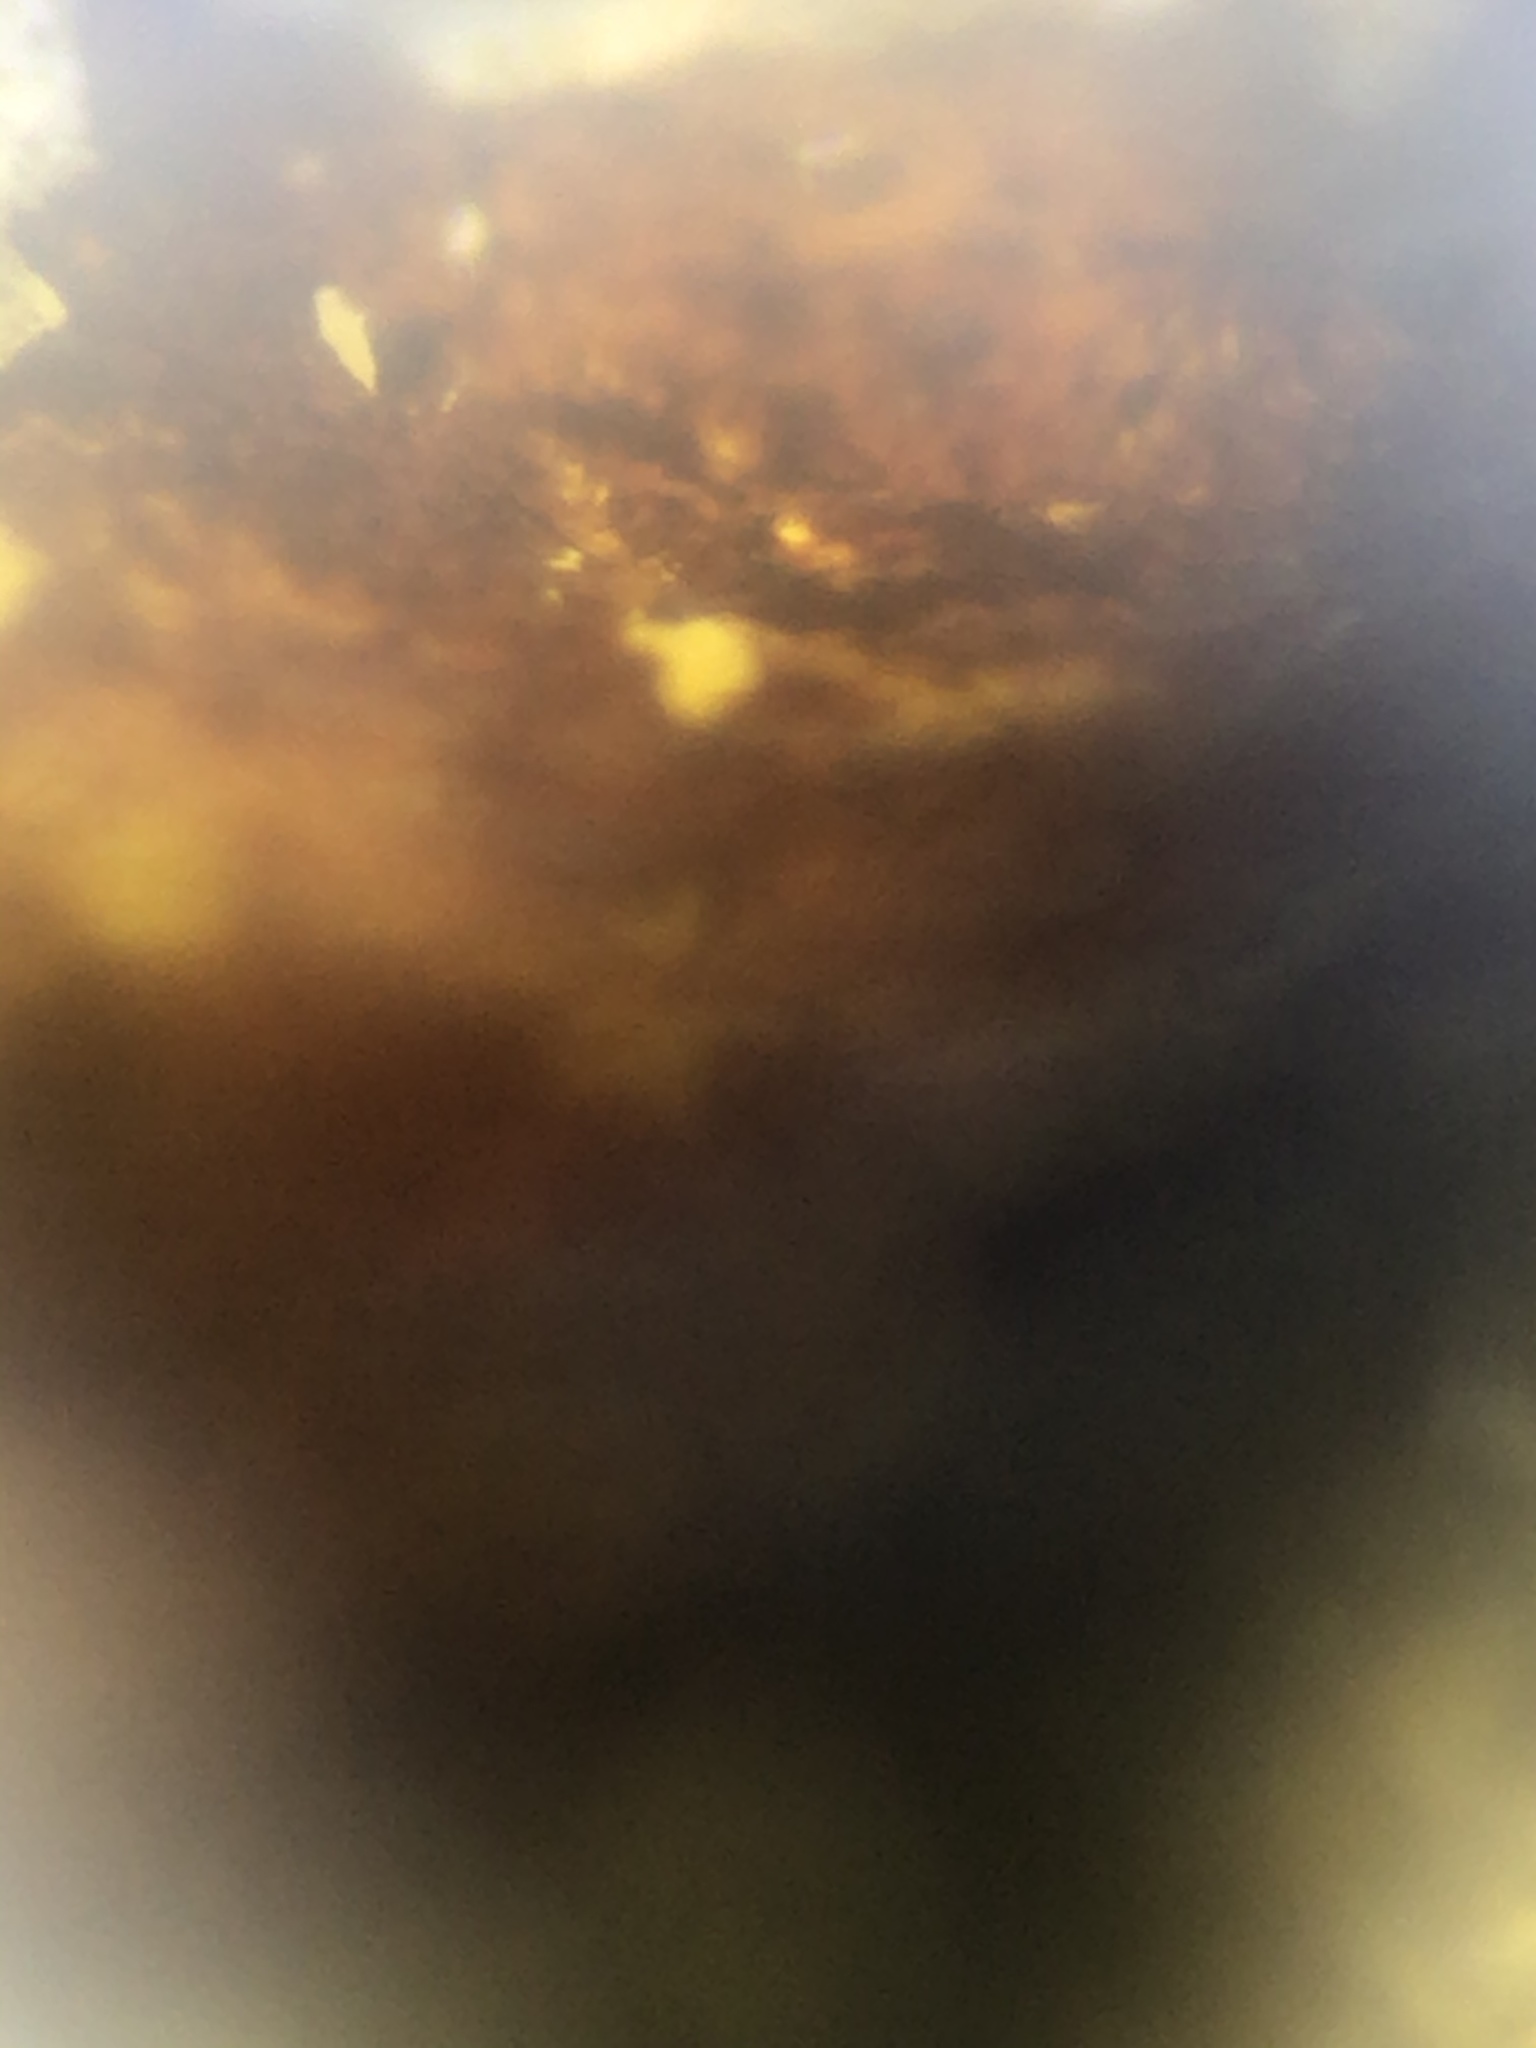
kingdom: Animalia
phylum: Mollusca
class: Gastropoda
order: Littorinimorpha
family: Tateidae
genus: Potamopyrgus
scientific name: Potamopyrgus antipodarum
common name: Jenkins' spire snail
